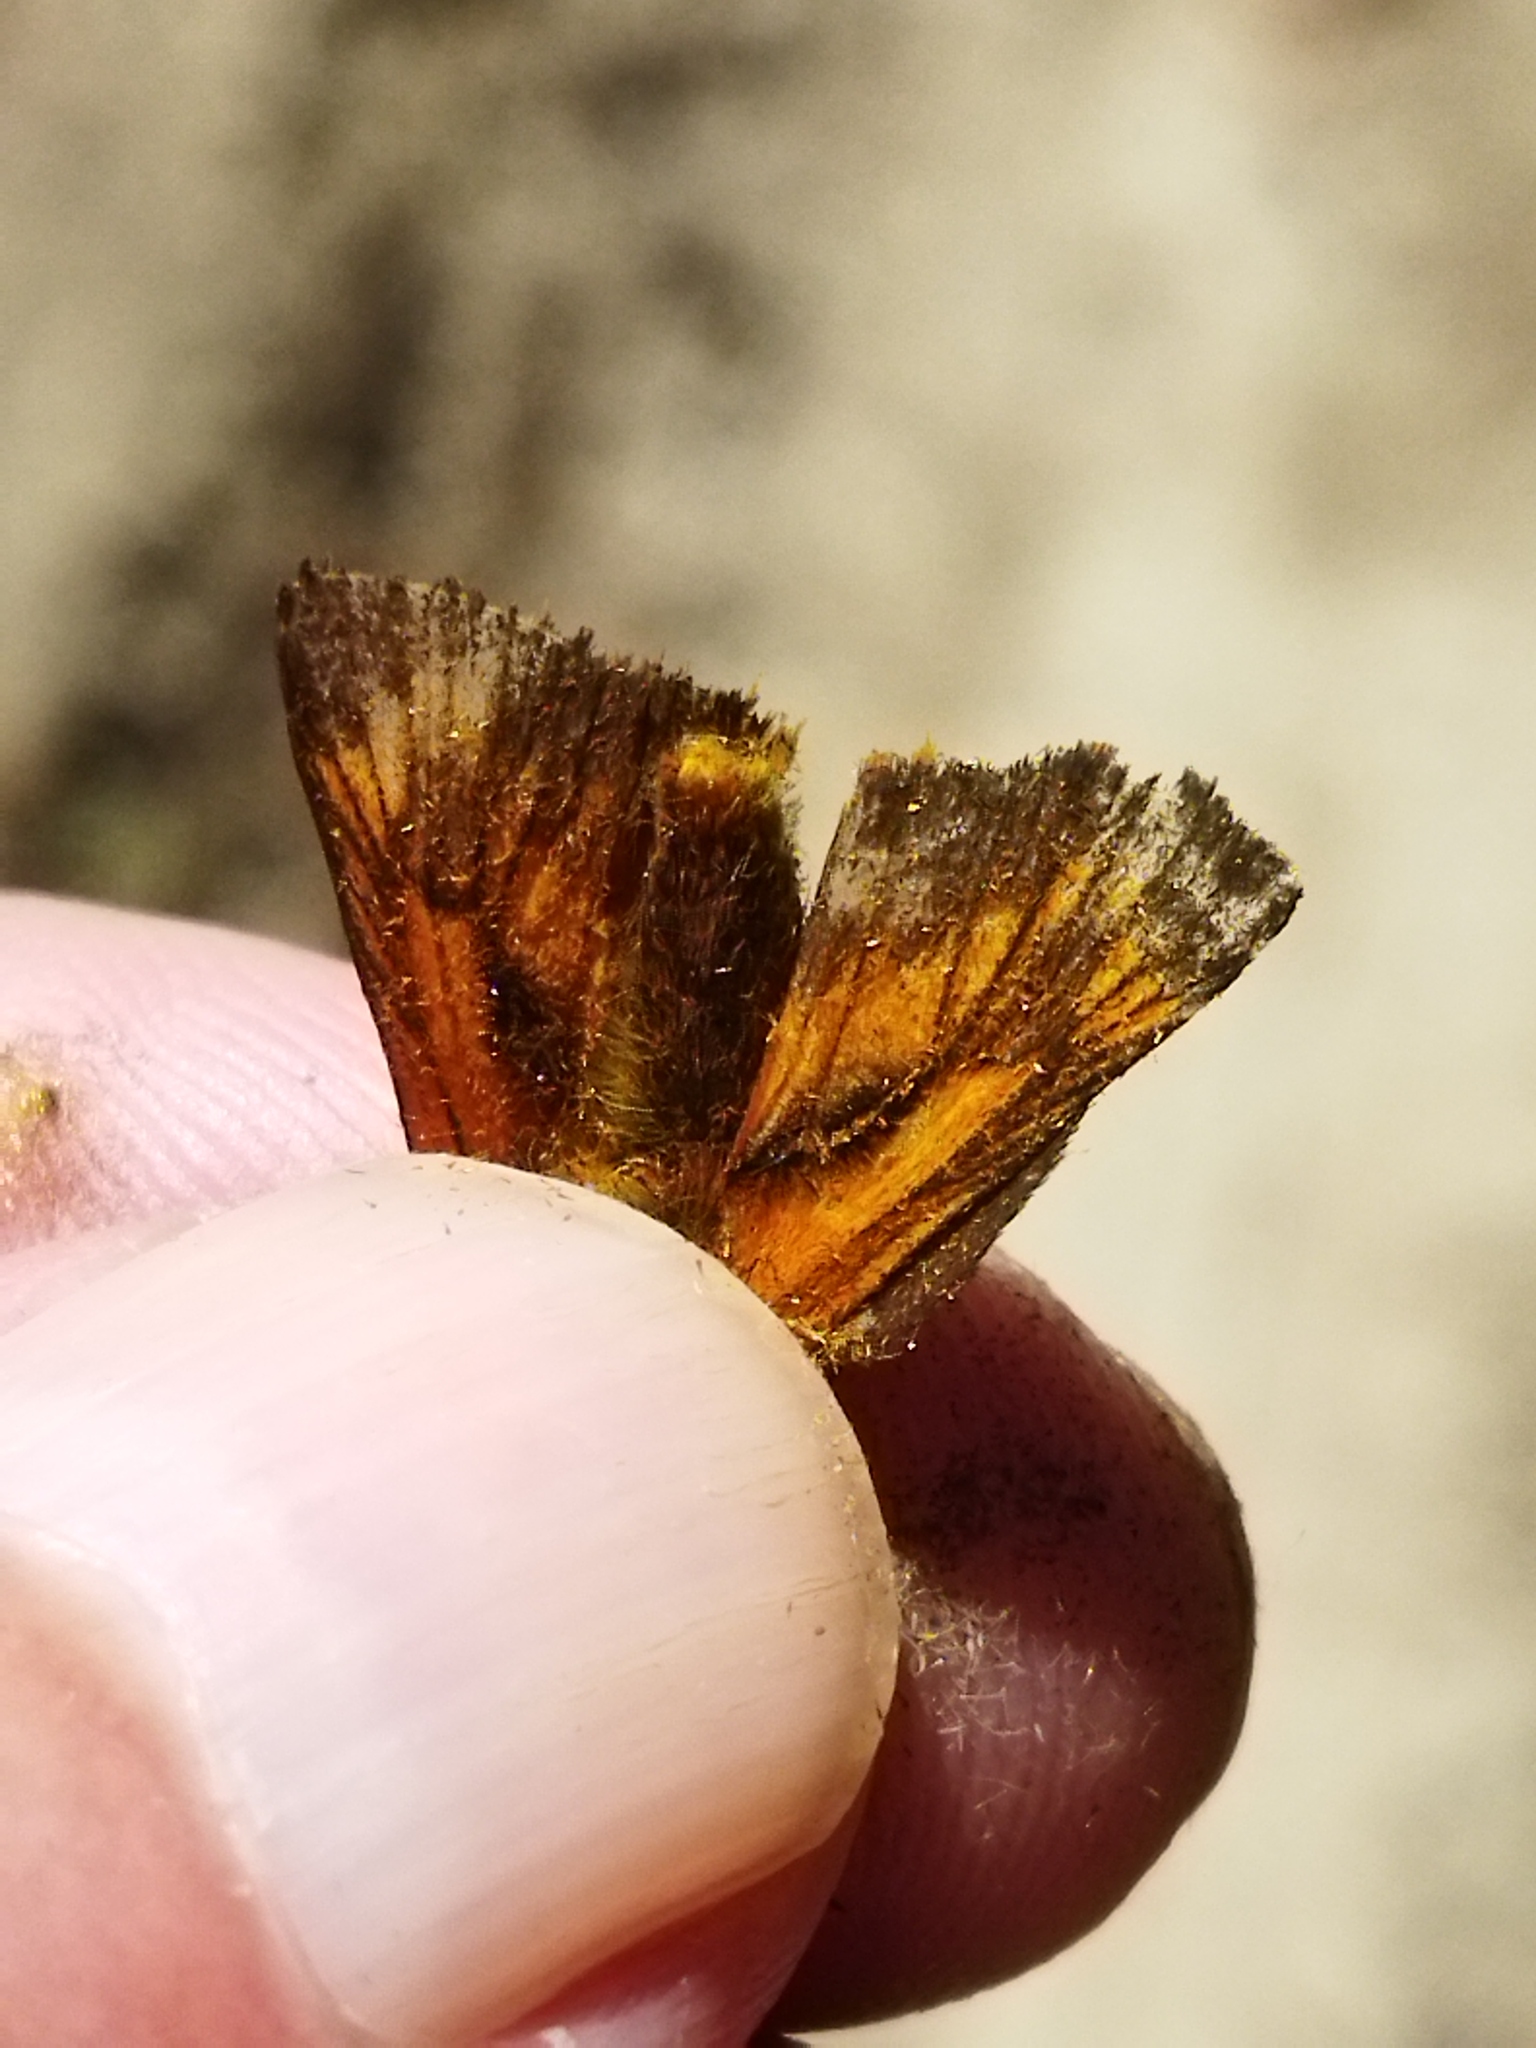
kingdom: Animalia
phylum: Arthropoda
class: Insecta
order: Lepidoptera
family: Hesperiidae
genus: Ochlodes
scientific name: Ochlodes venata
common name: Large skipper
